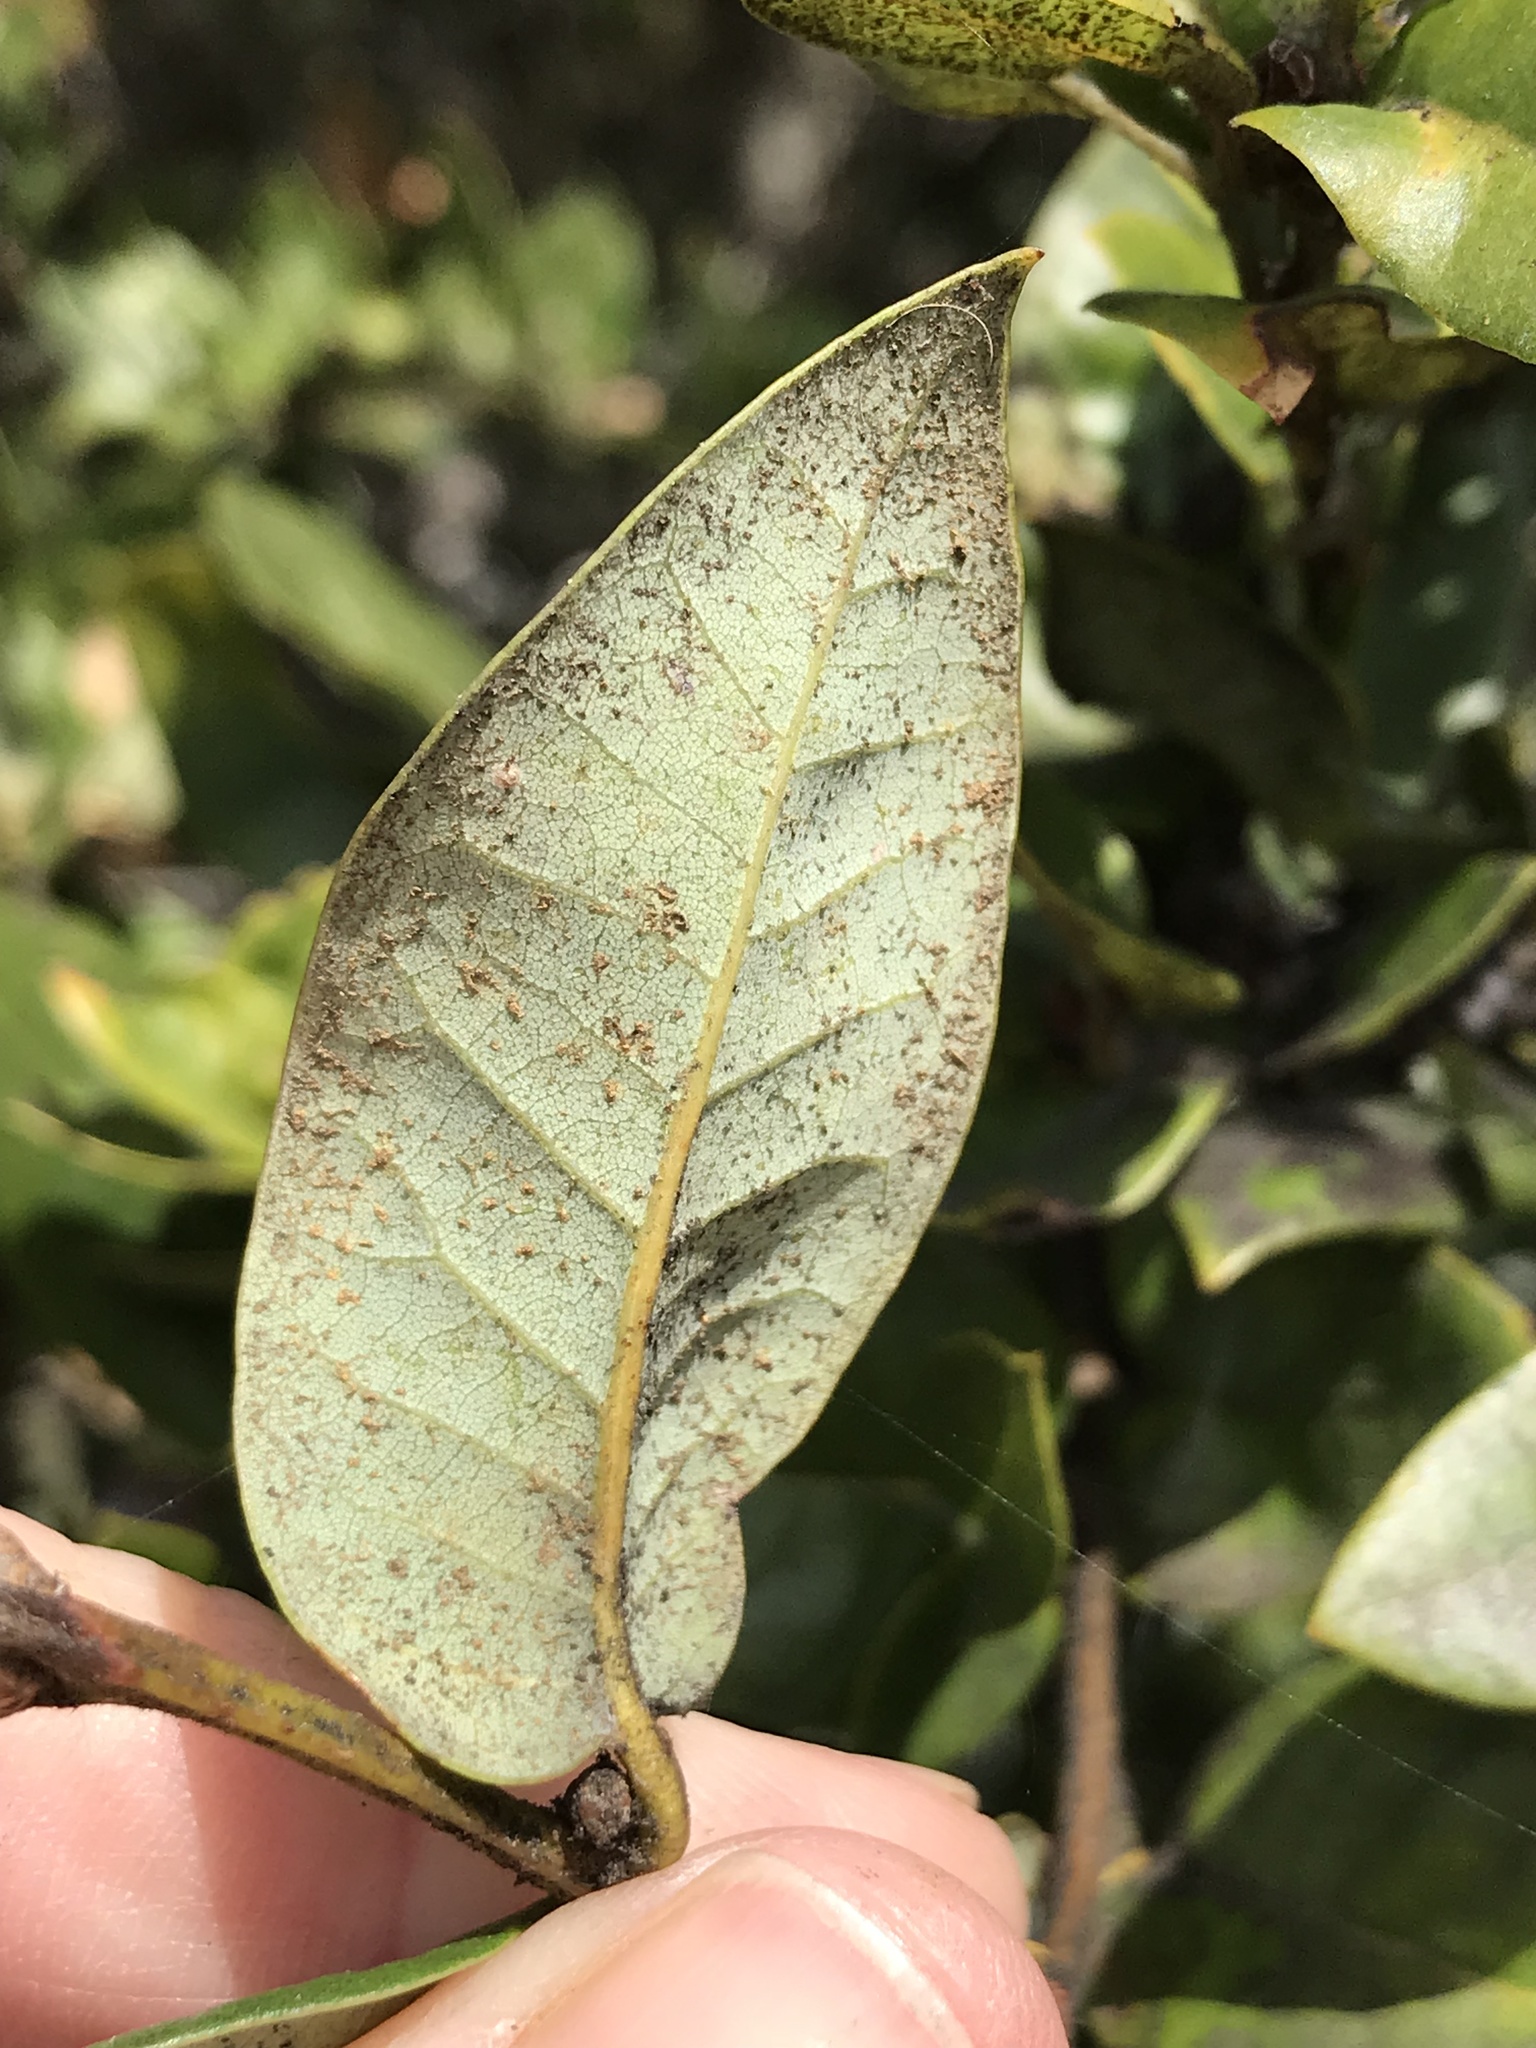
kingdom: Plantae
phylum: Tracheophyta
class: Magnoliopsida
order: Fagales
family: Fagaceae
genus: Quercus
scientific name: Quercus chrysolepis
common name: Canyon live oak
